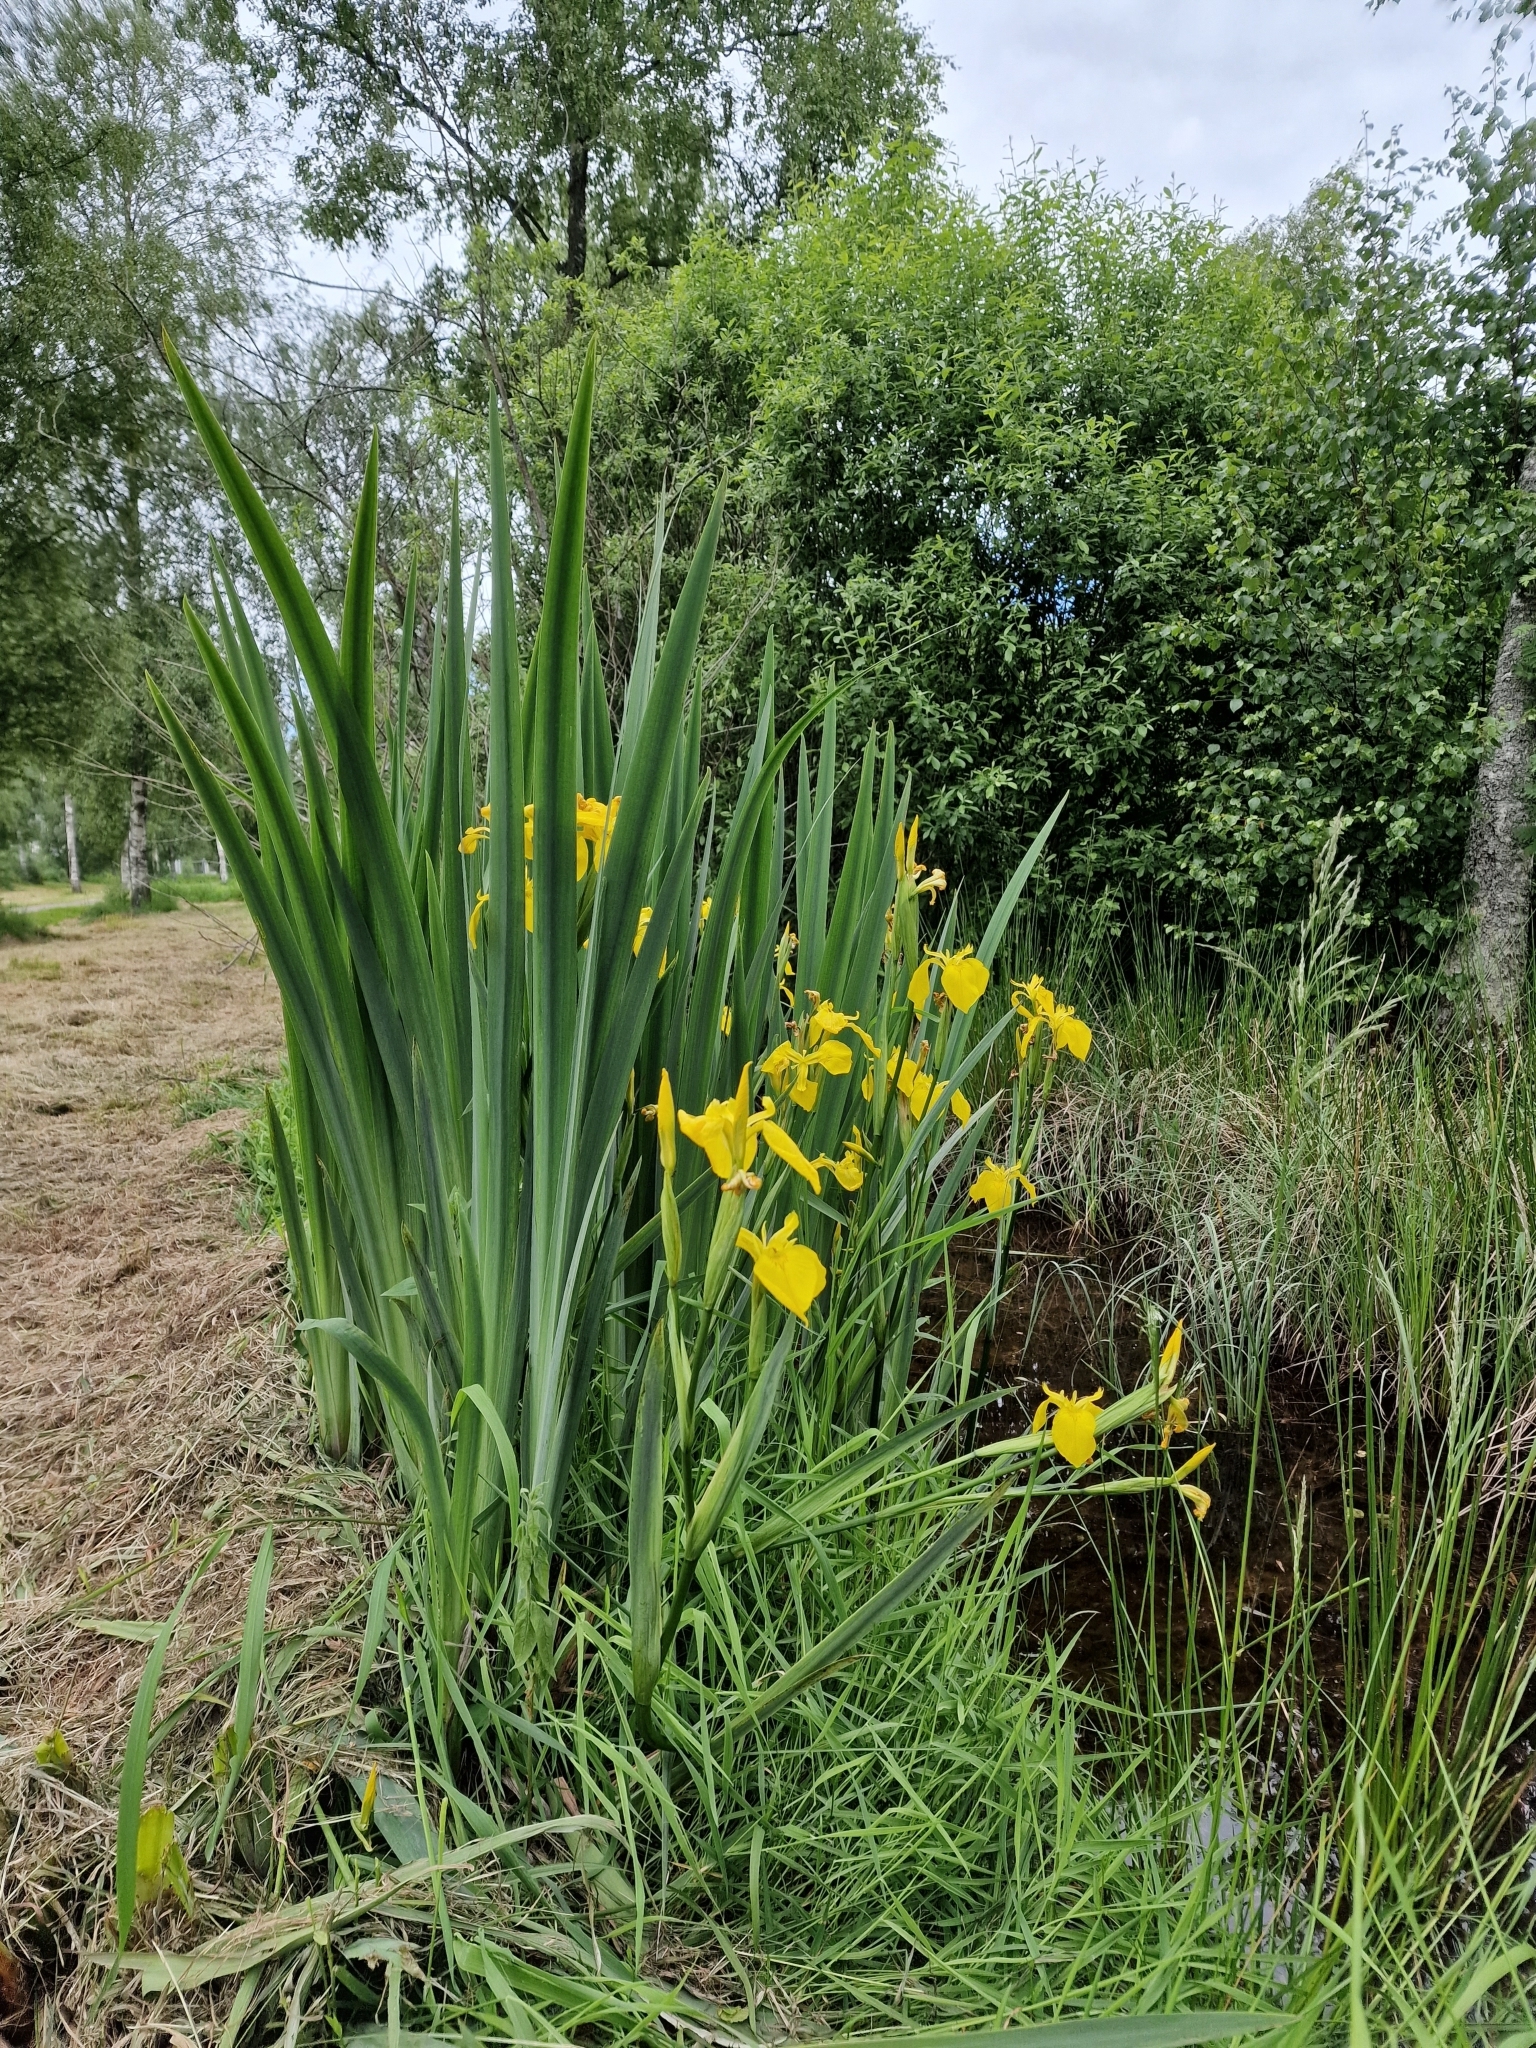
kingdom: Plantae
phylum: Tracheophyta
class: Liliopsida
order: Asparagales
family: Iridaceae
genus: Iris
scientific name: Iris pseudacorus
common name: Yellow flag
